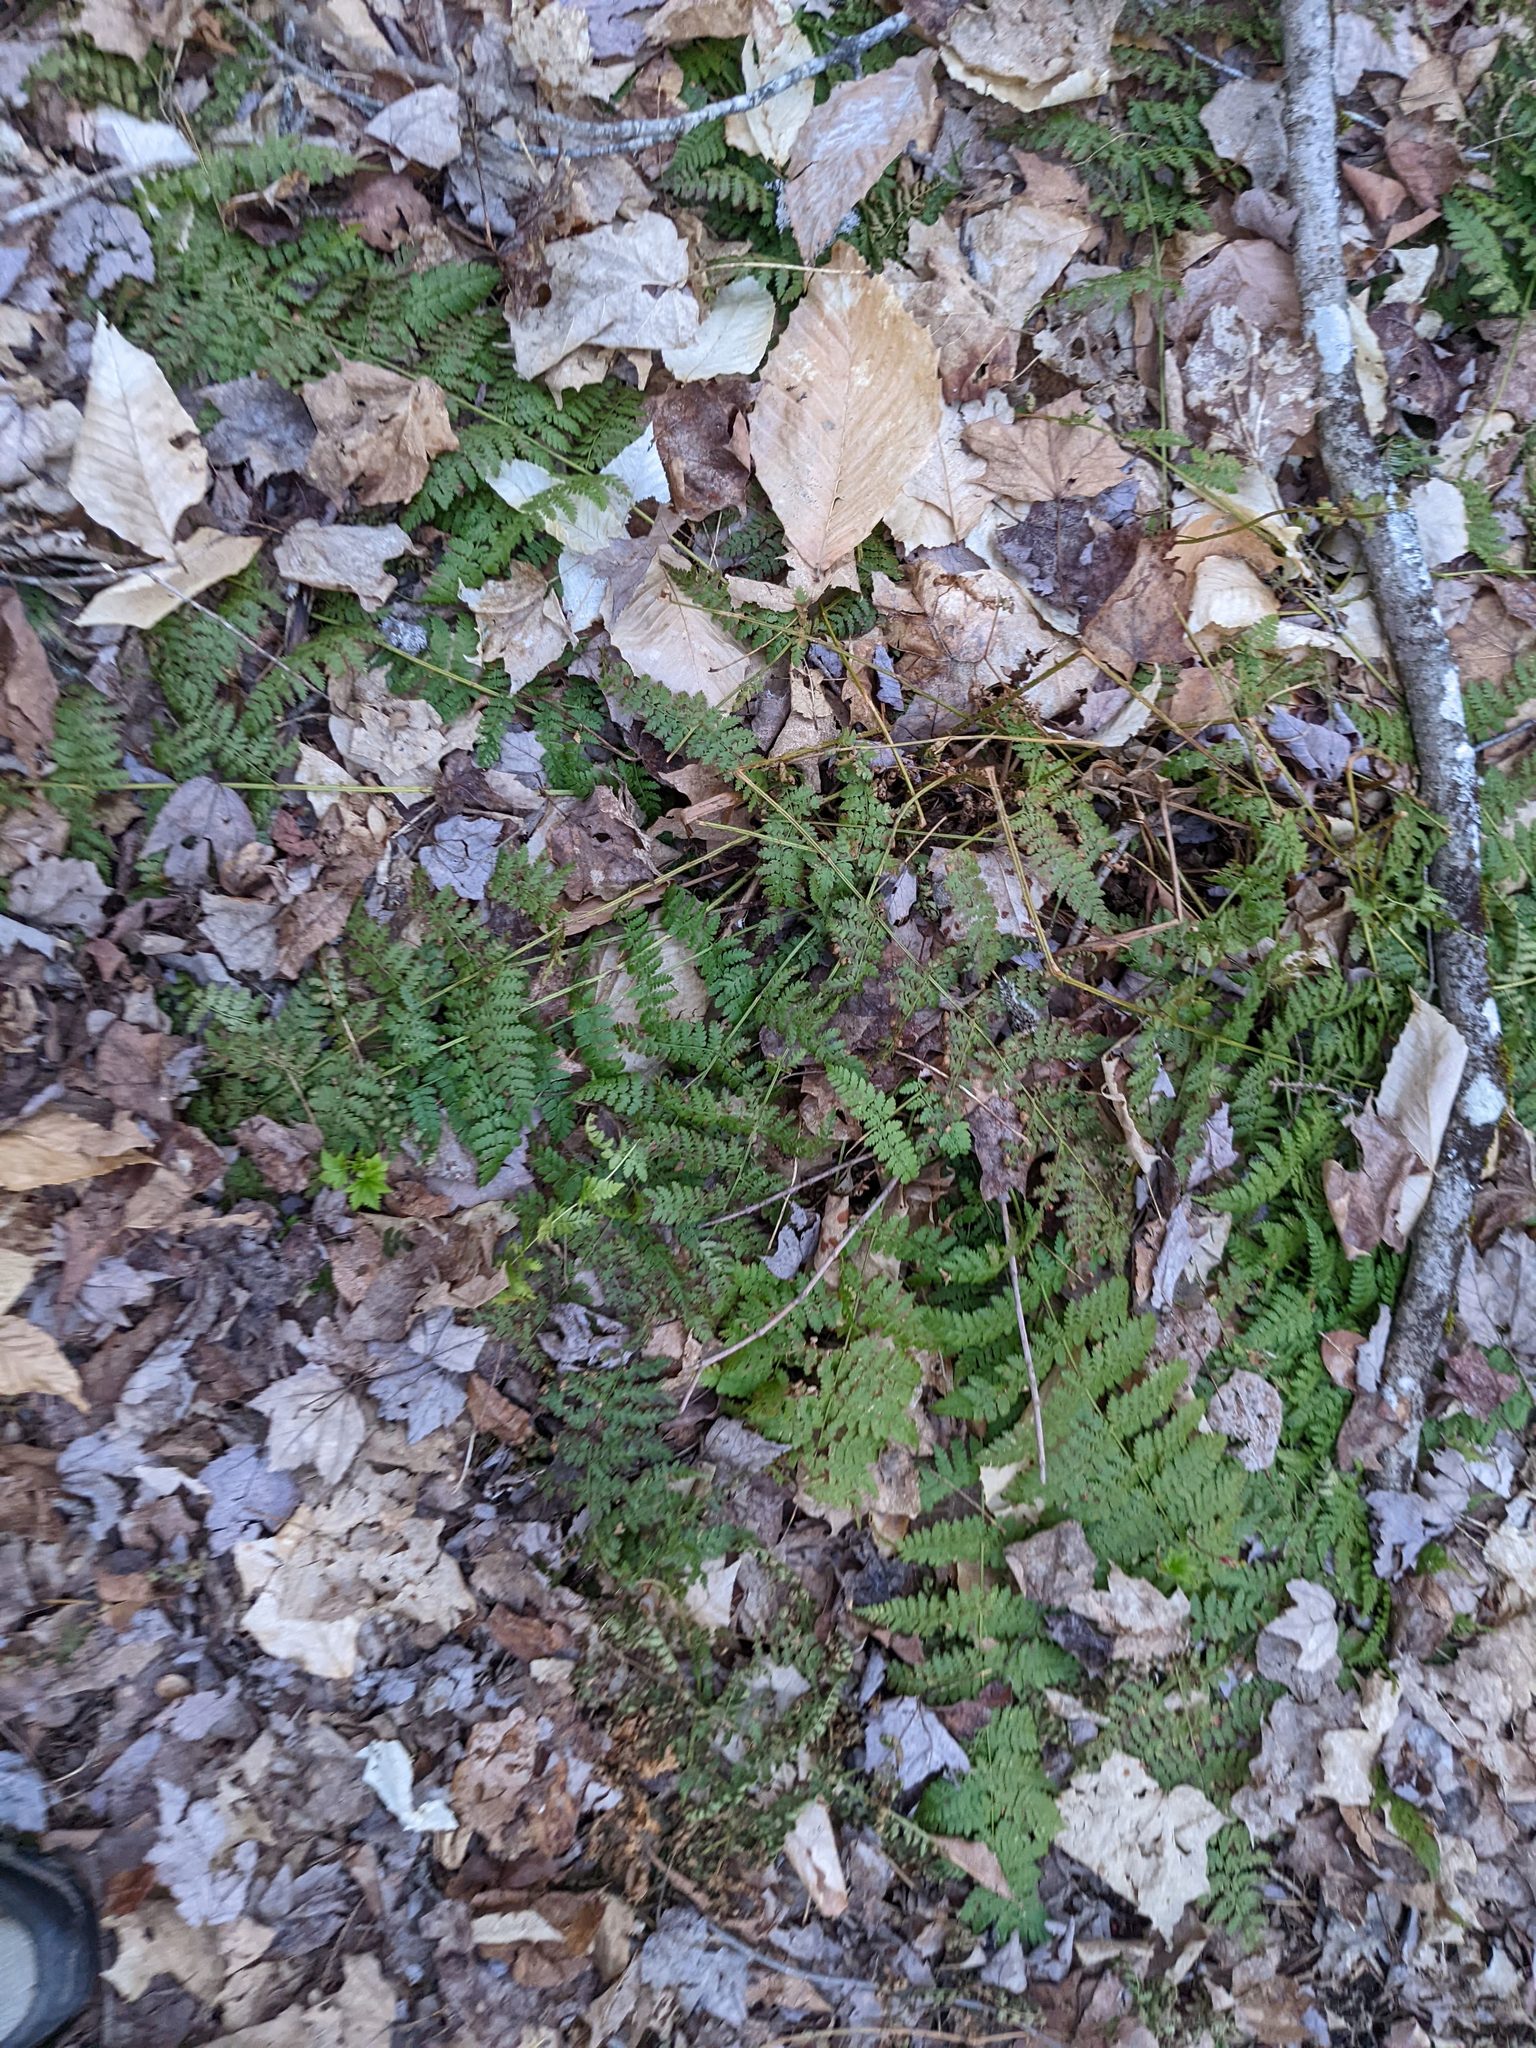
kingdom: Plantae
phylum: Tracheophyta
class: Polypodiopsida
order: Polypodiales
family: Dryopteridaceae
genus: Dryopteris
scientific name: Dryopteris intermedia
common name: Evergreen wood fern
